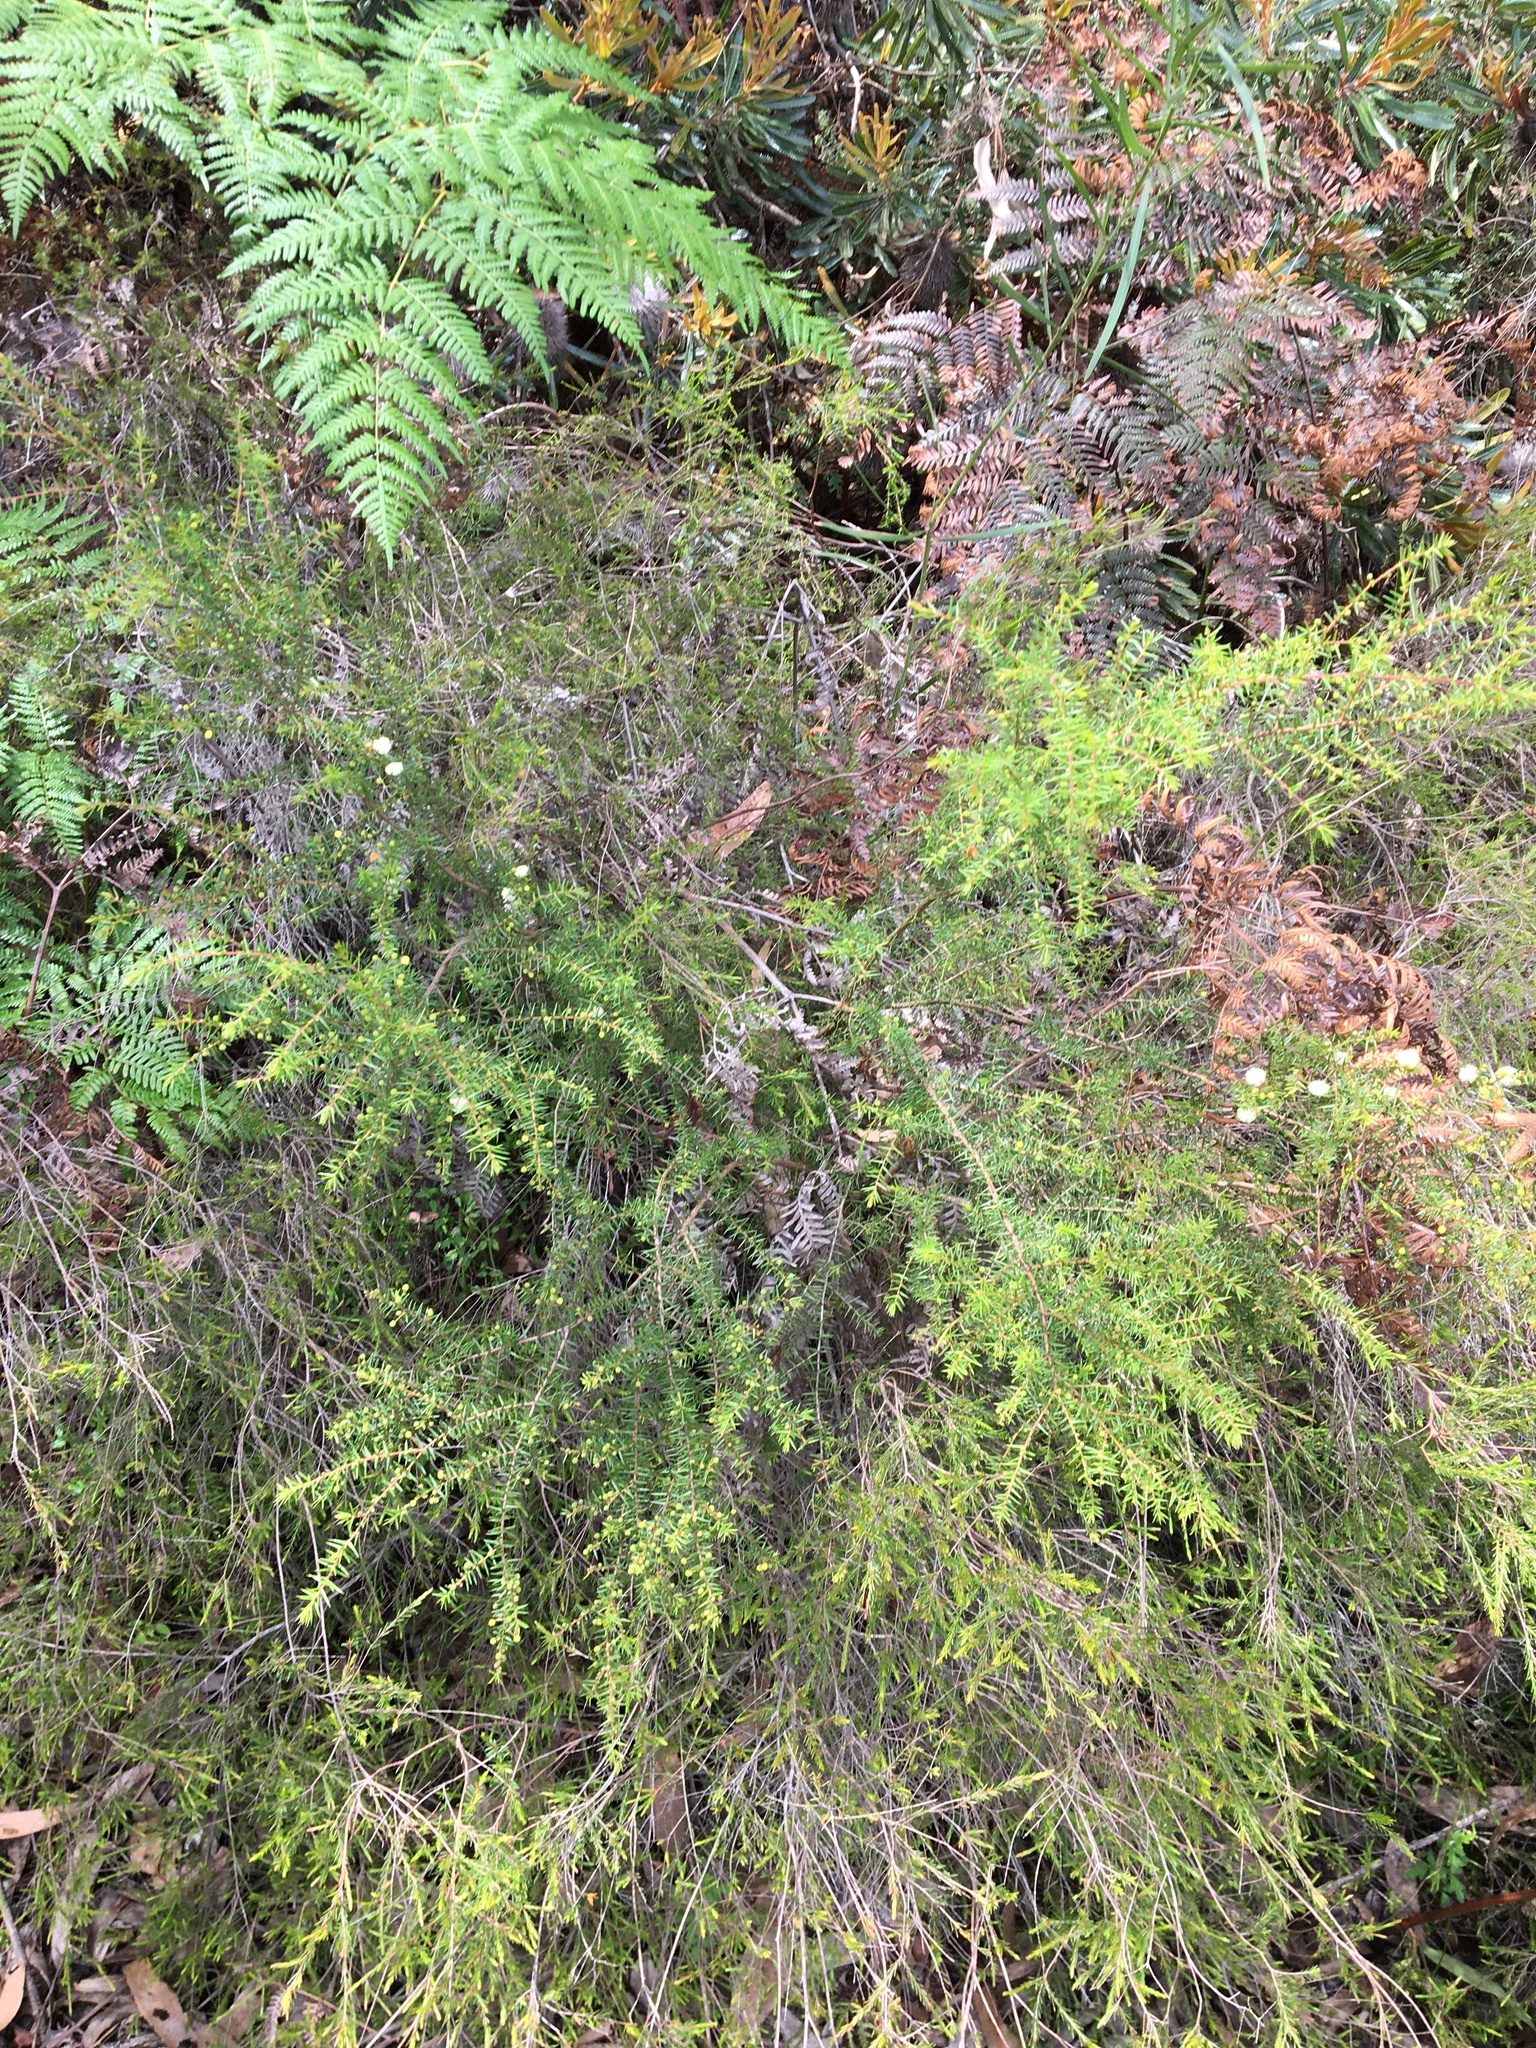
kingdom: Plantae
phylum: Tracheophyta
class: Magnoliopsida
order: Fabales
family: Fabaceae
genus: Acacia
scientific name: Acacia ulicifolia
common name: Juniper wattle
